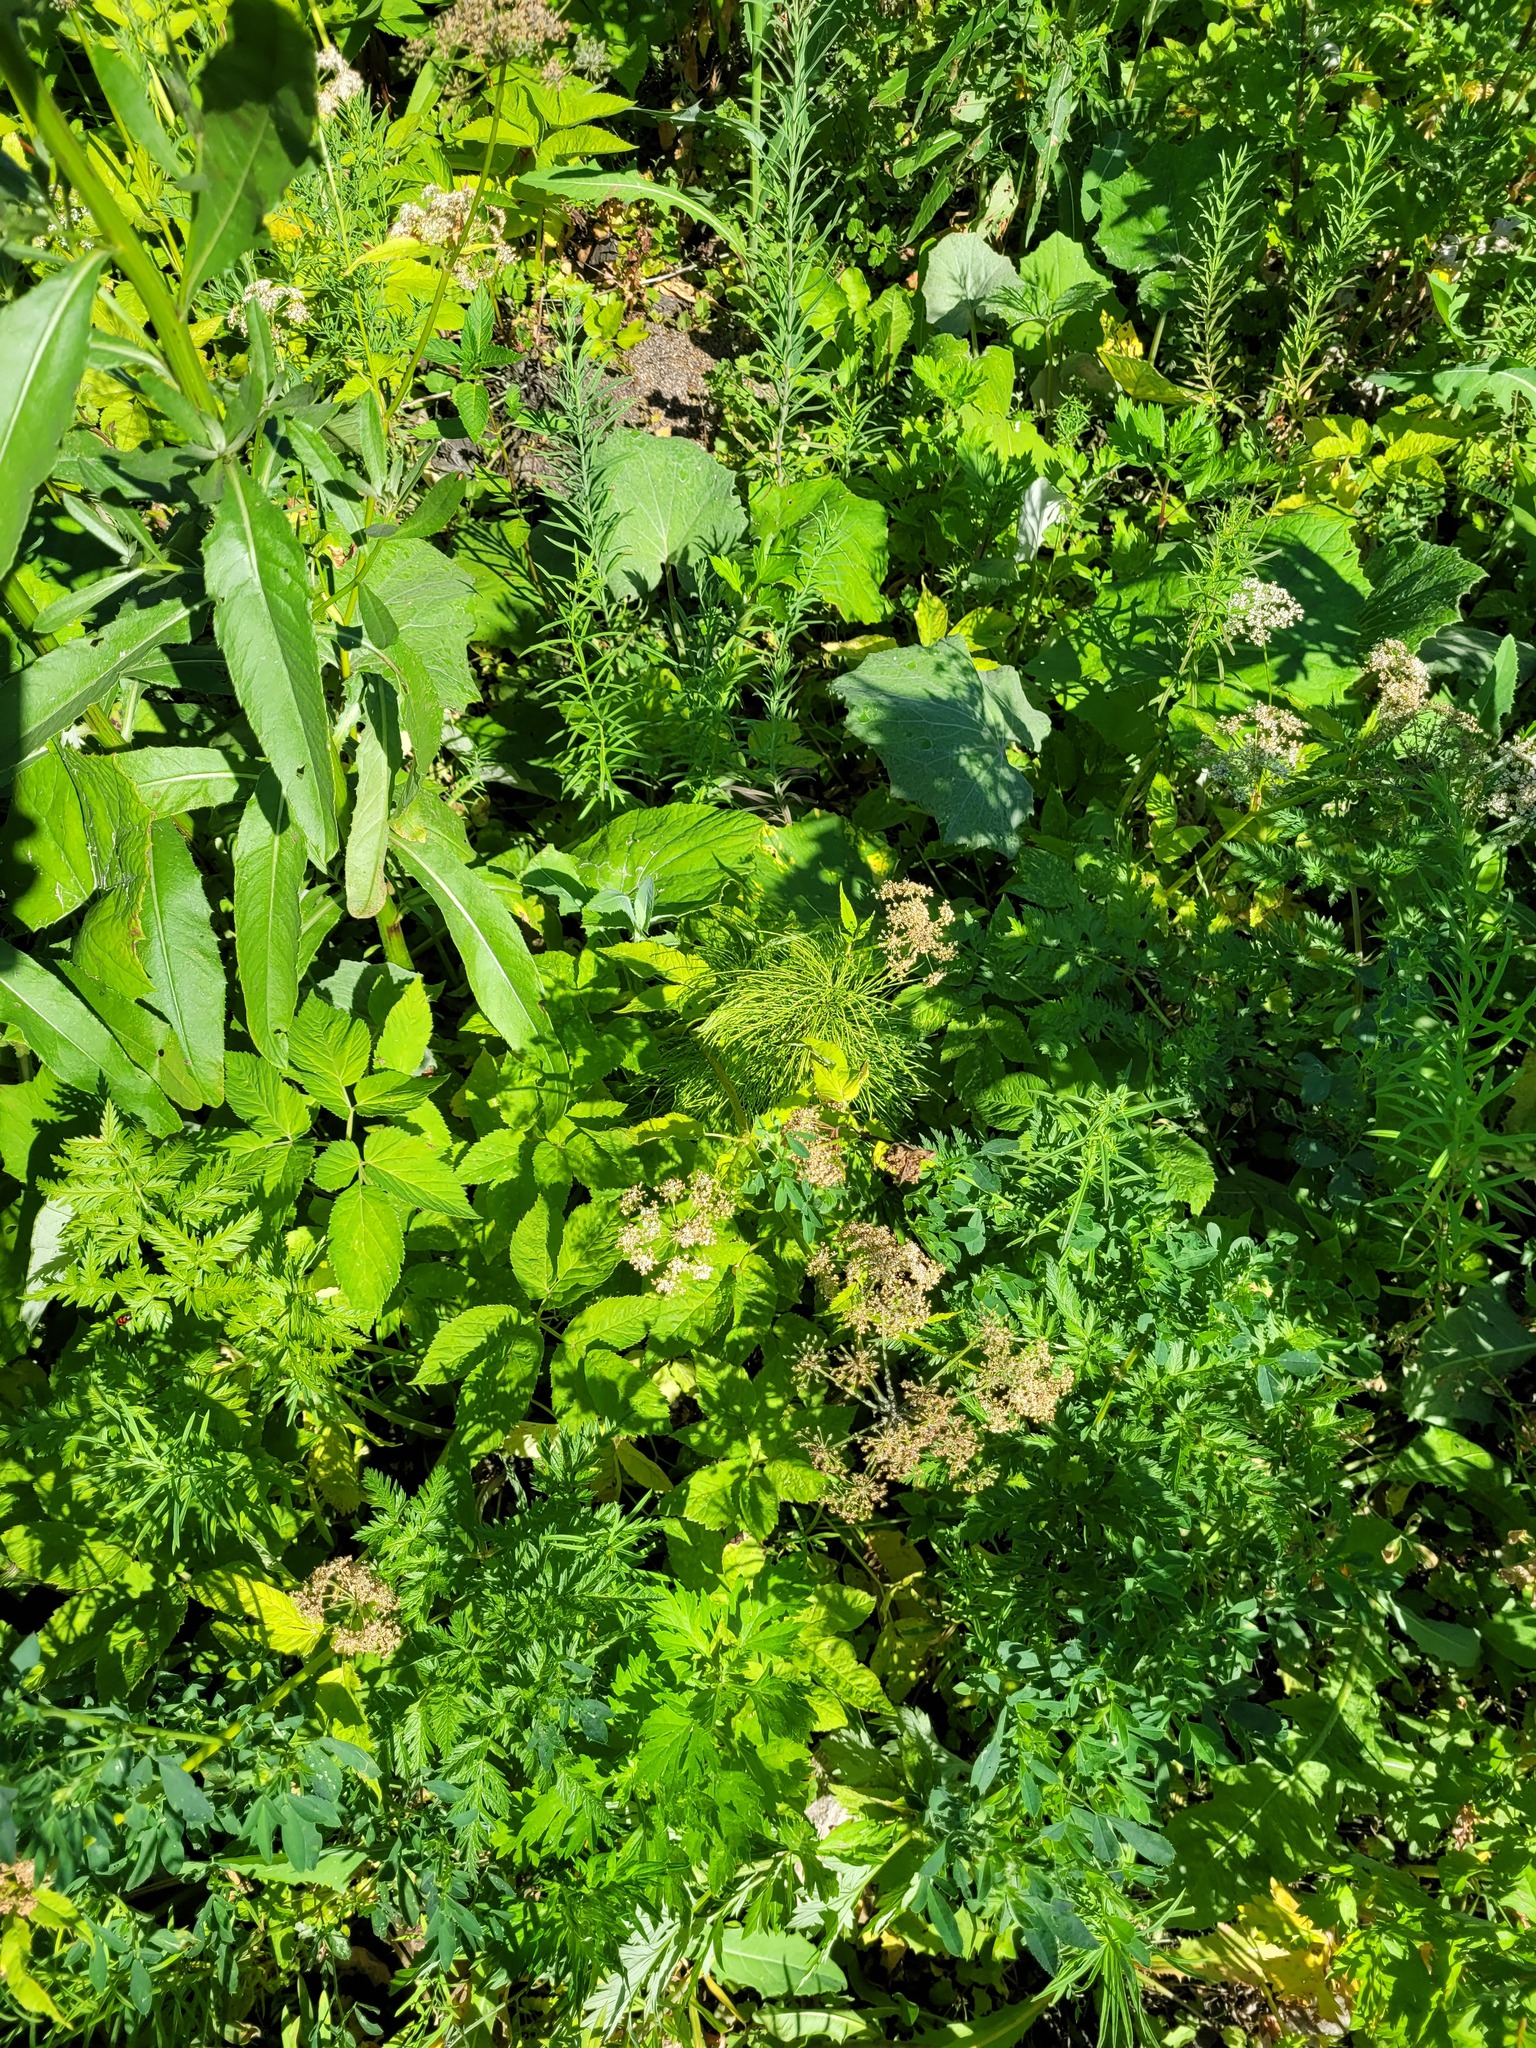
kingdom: Plantae
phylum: Tracheophyta
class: Magnoliopsida
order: Apiales
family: Apiaceae
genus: Aegopodium
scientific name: Aegopodium podagraria
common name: Ground-elder
